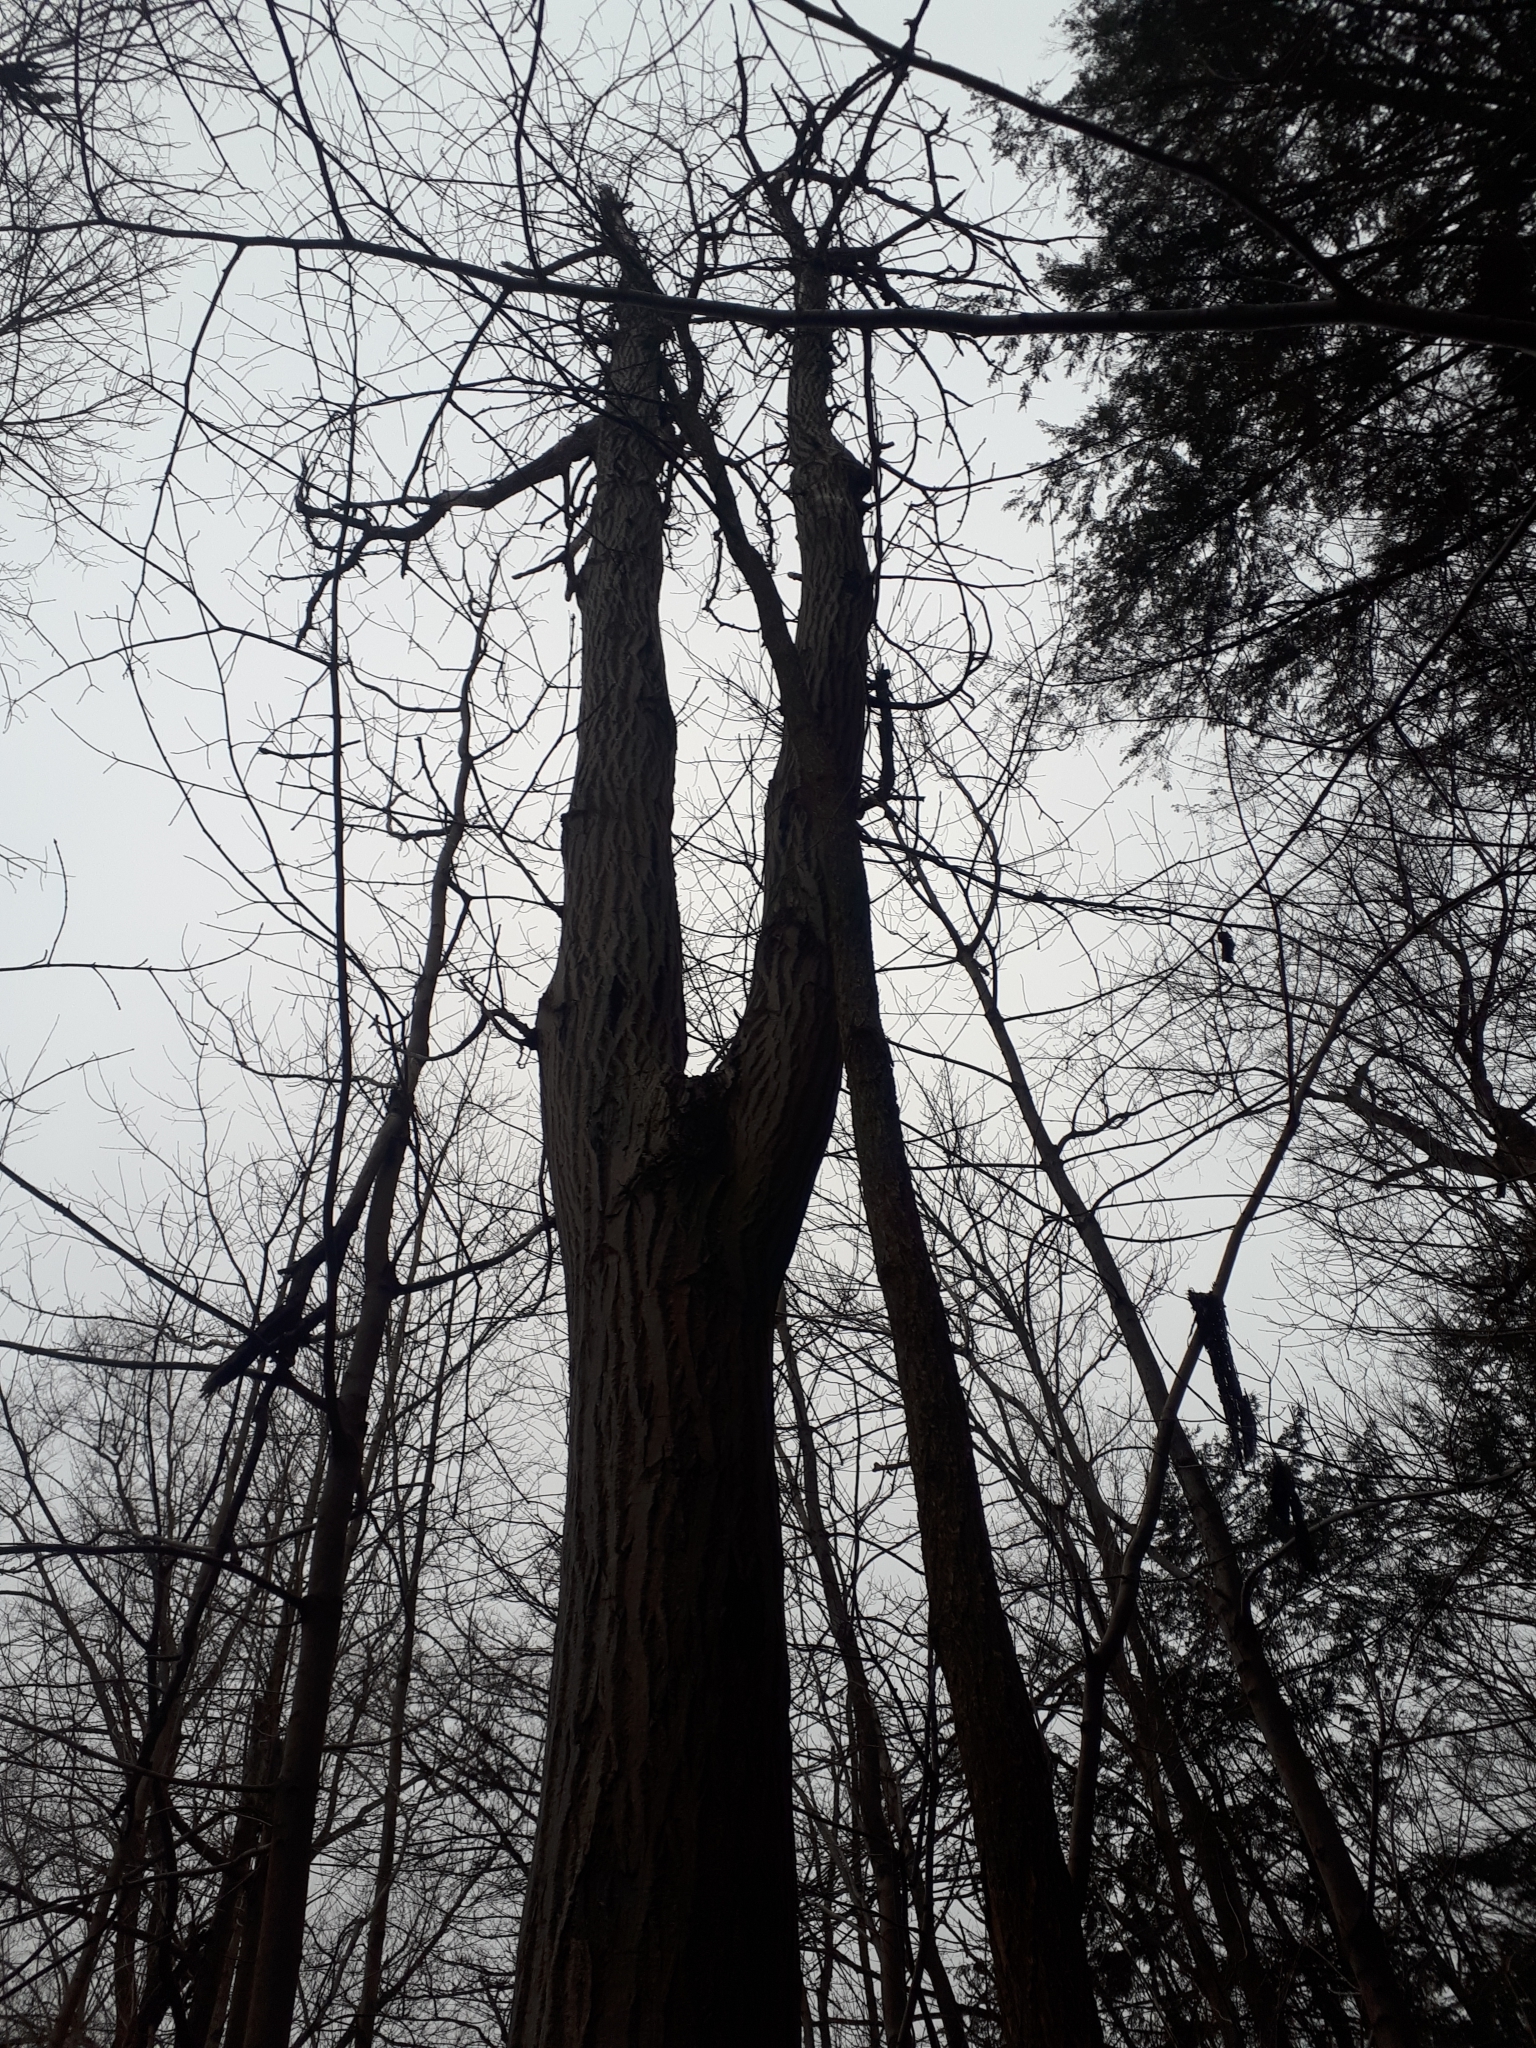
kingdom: Plantae
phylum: Tracheophyta
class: Magnoliopsida
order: Fagales
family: Juglandaceae
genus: Juglans
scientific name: Juglans cinerea
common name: Butternut
